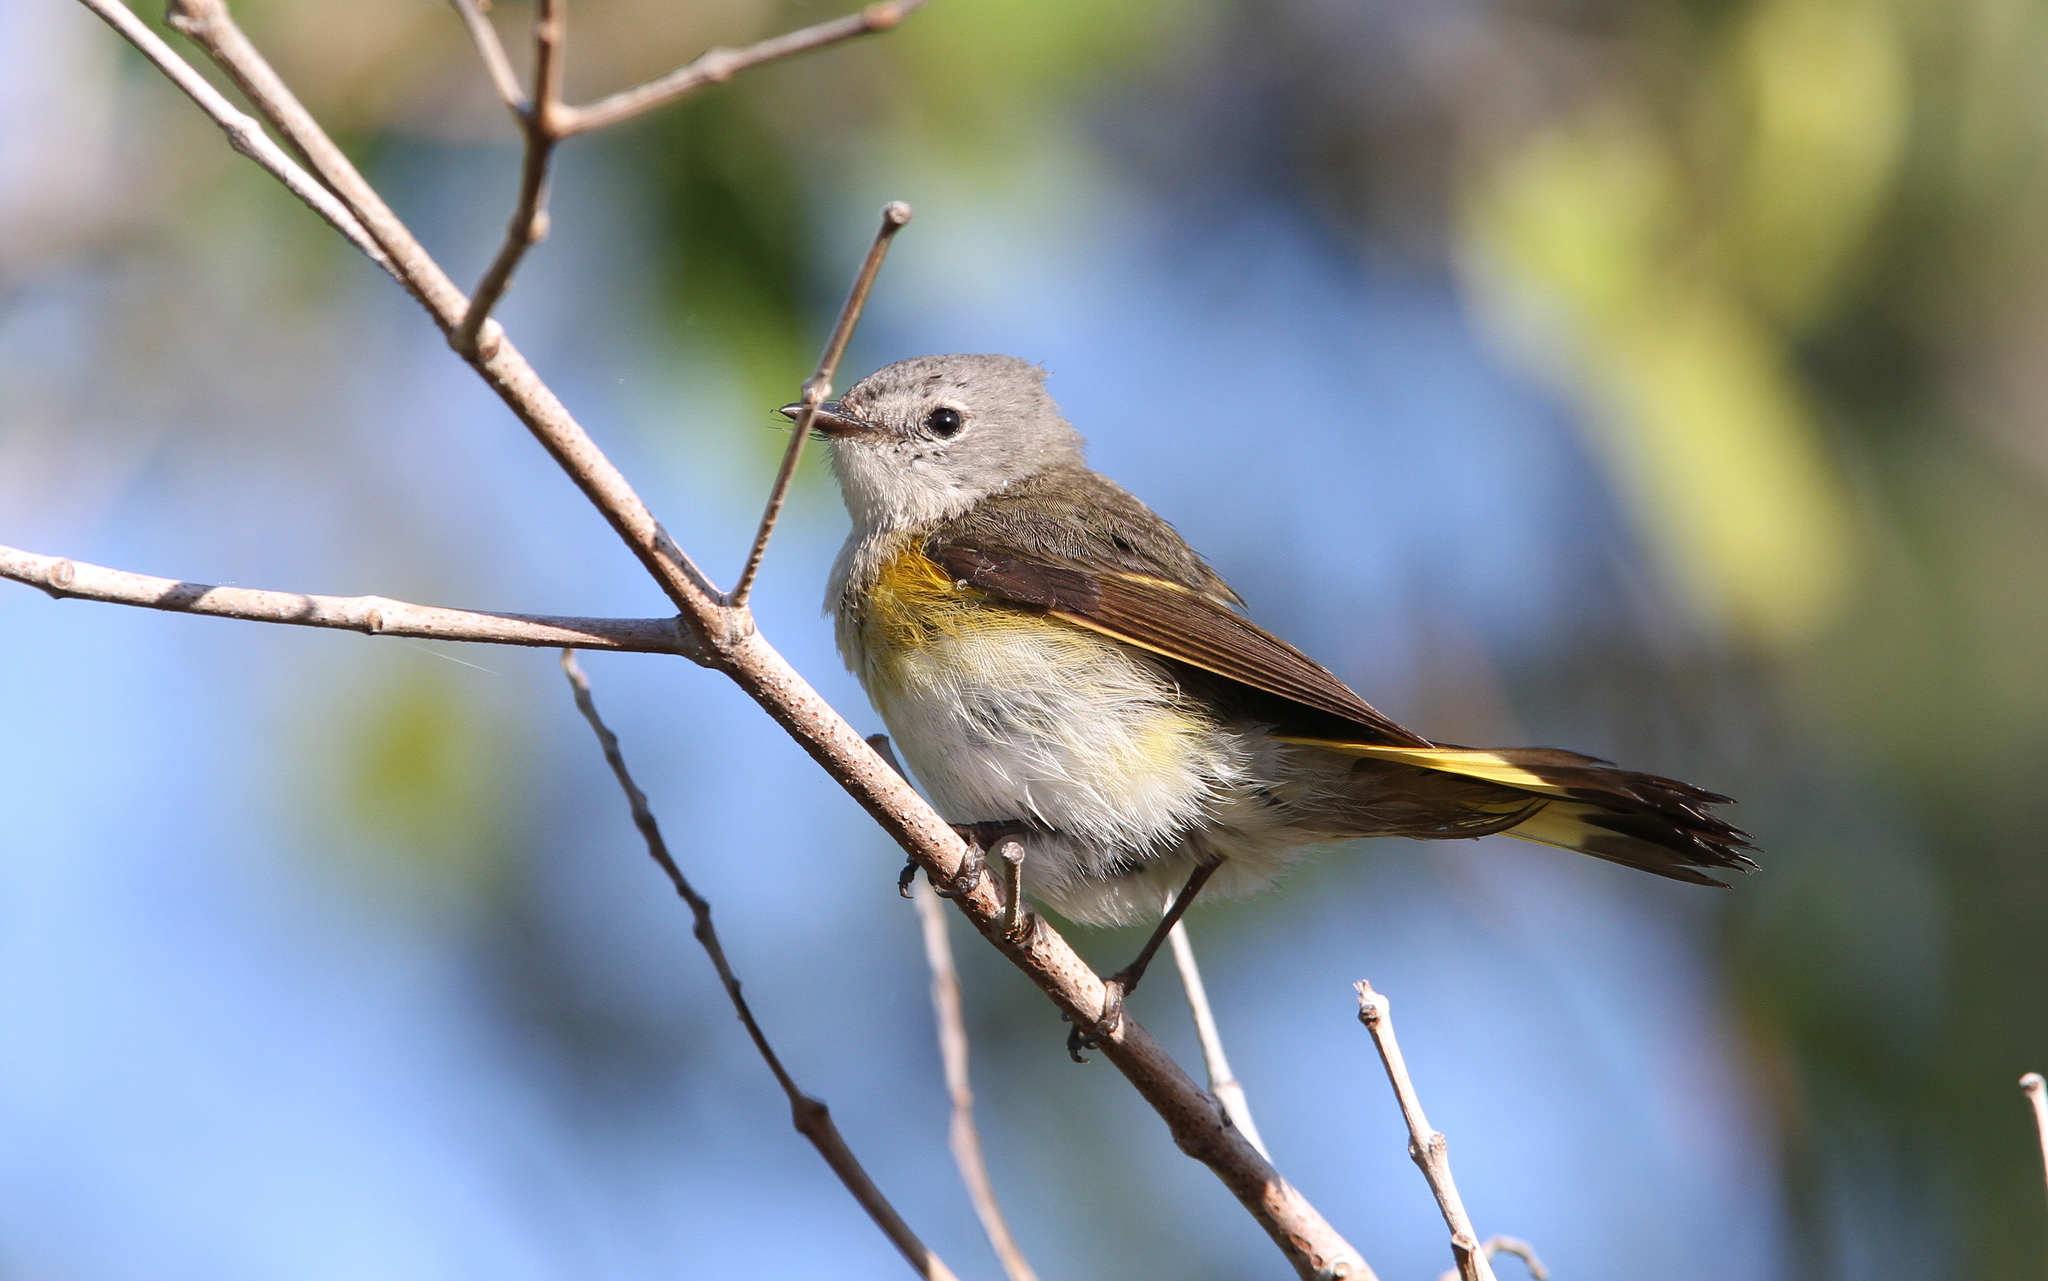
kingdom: Animalia
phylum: Chordata
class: Aves
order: Passeriformes
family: Parulidae
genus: Setophaga
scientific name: Setophaga ruticilla
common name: American redstart
